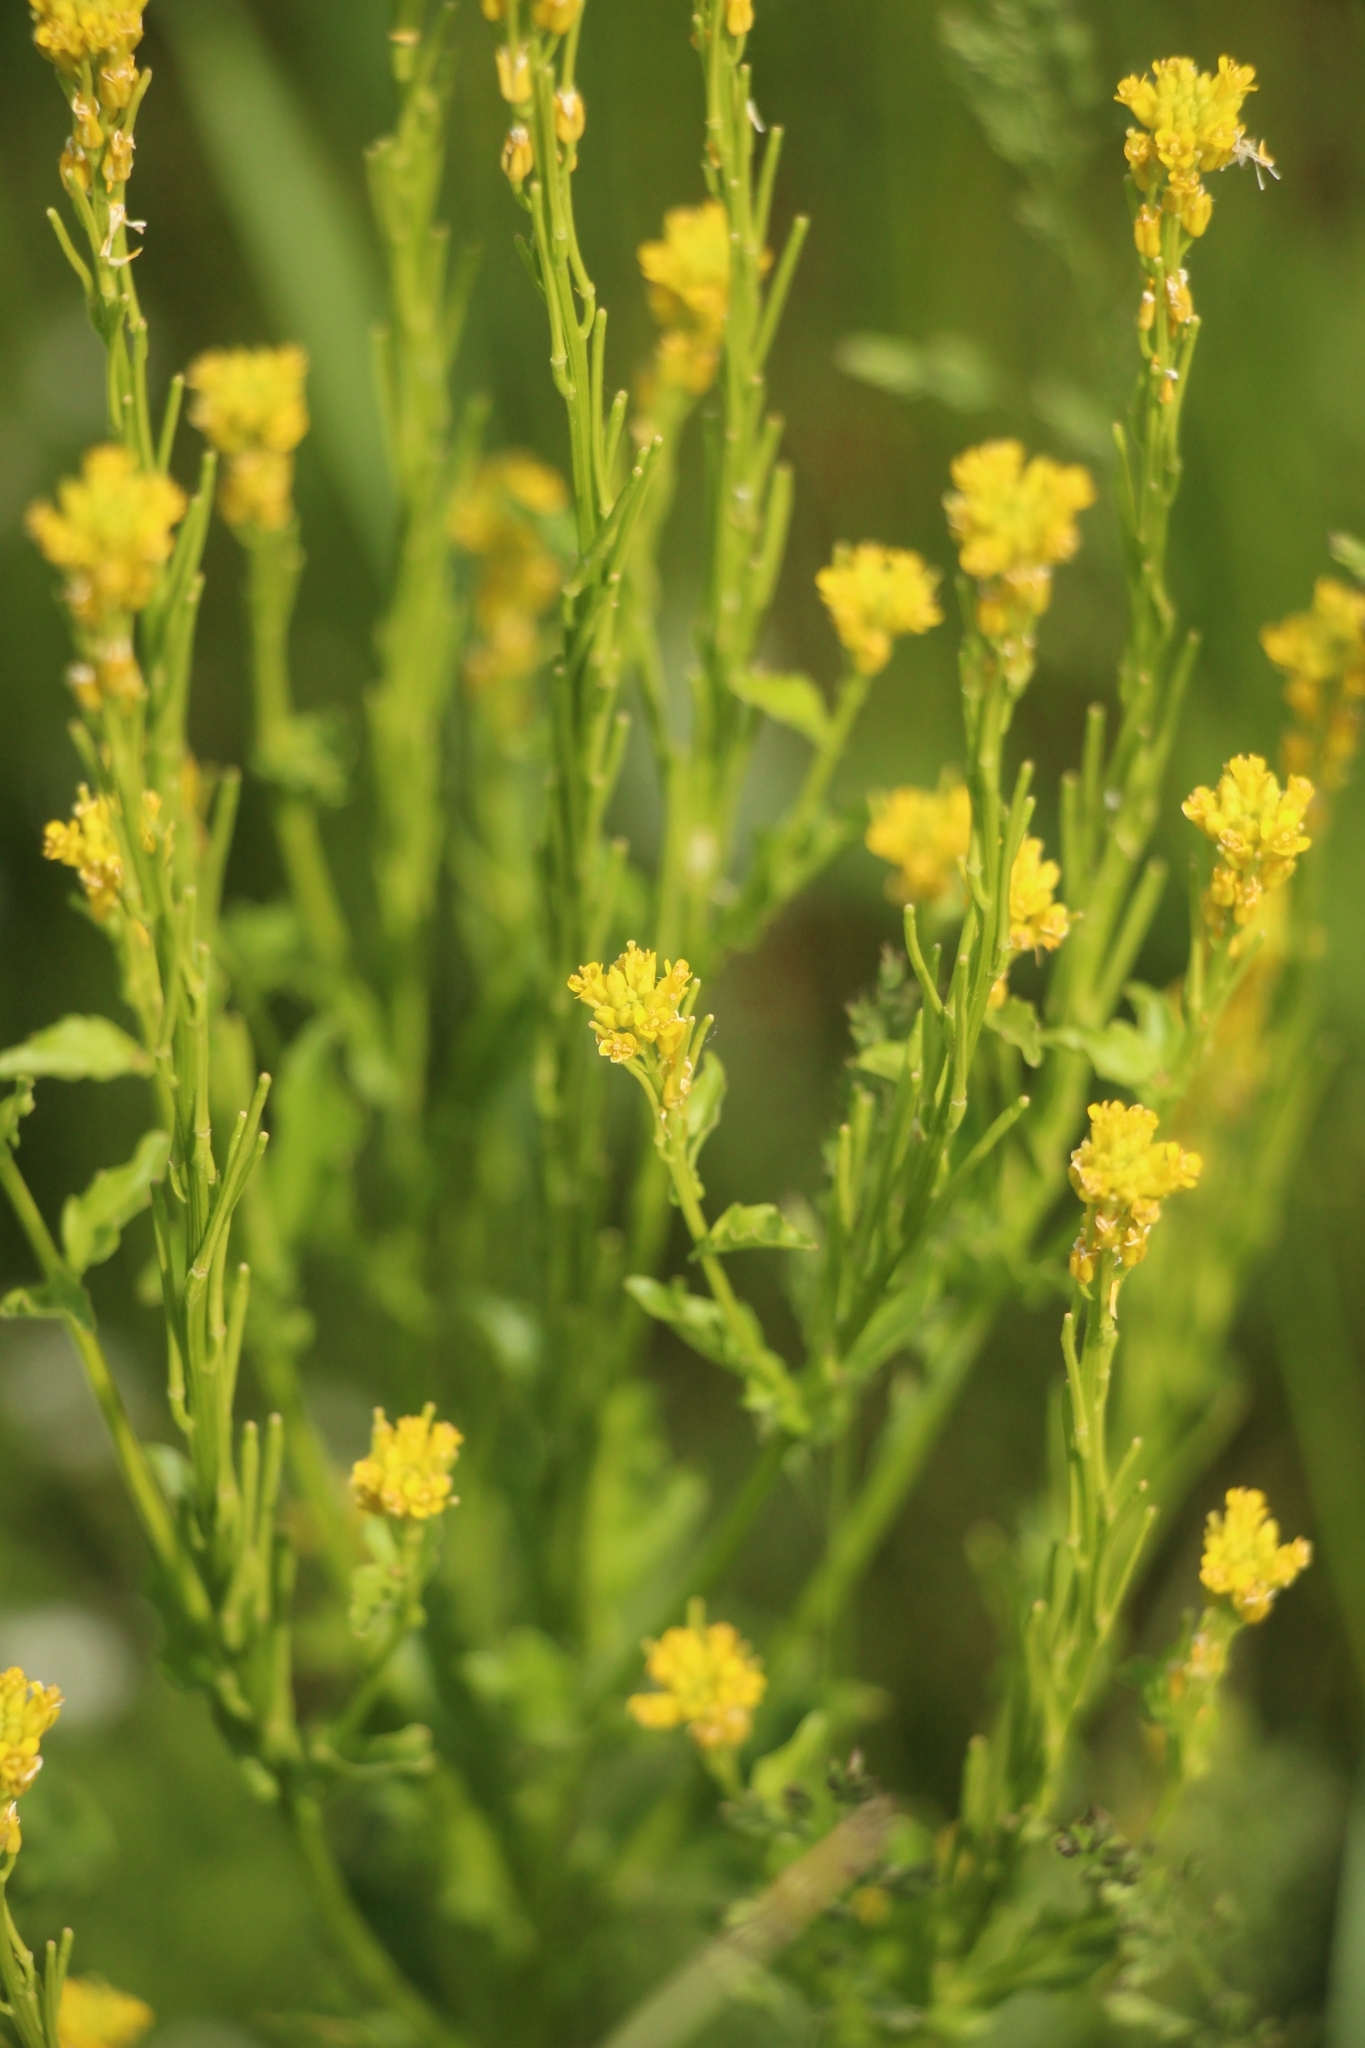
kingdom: Plantae
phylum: Tracheophyta
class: Magnoliopsida
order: Brassicales
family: Brassicaceae
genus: Barbarea
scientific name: Barbarea stricta
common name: Small-flowered winter-cress
